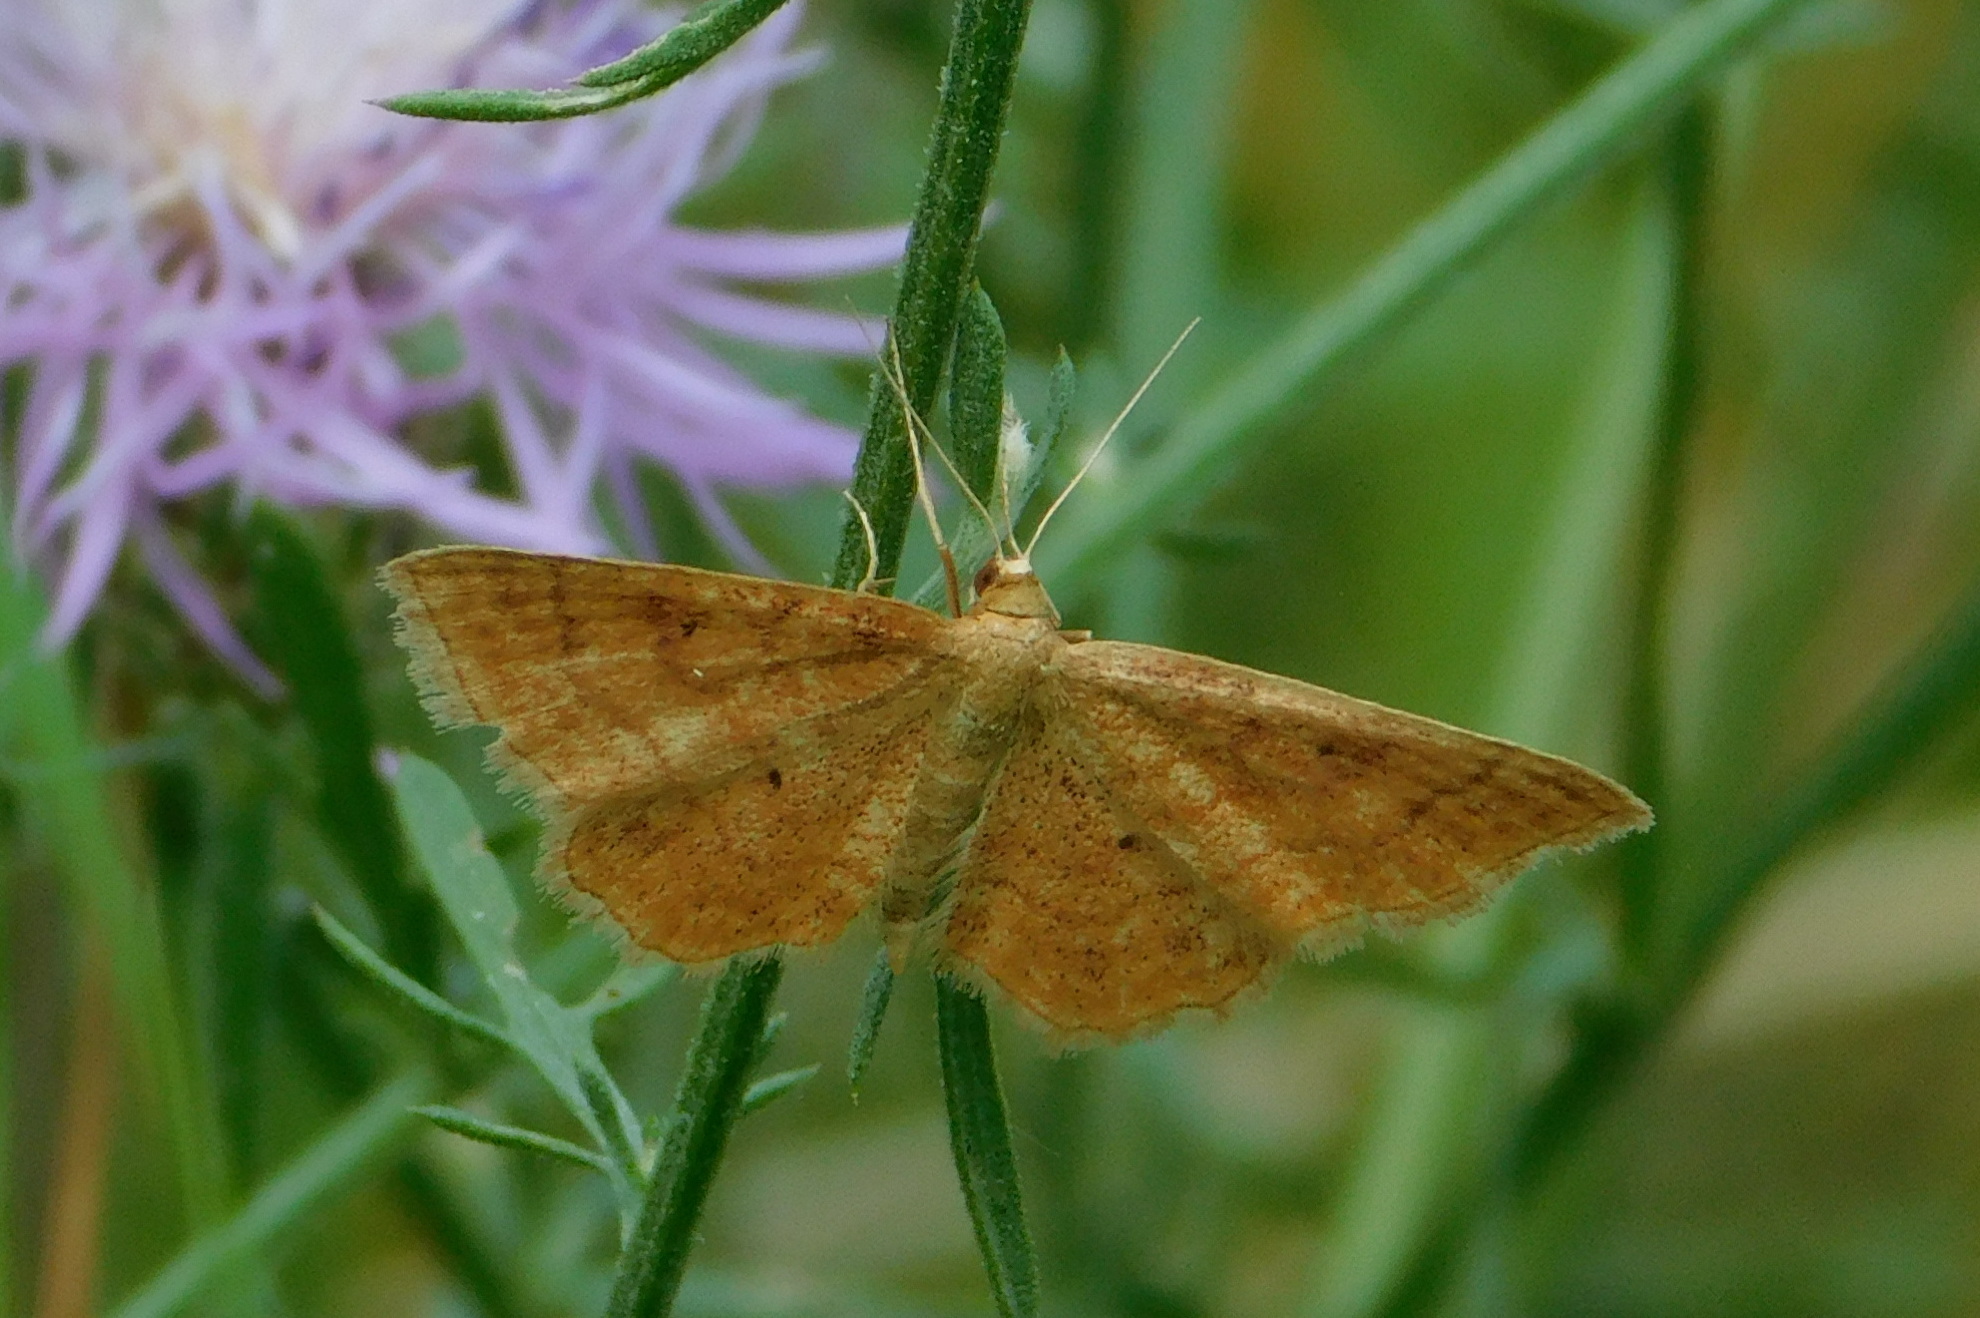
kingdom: Animalia
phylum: Arthropoda
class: Insecta
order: Lepidoptera
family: Geometridae
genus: Idaea
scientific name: Idaea ochrata
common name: Bright wave
